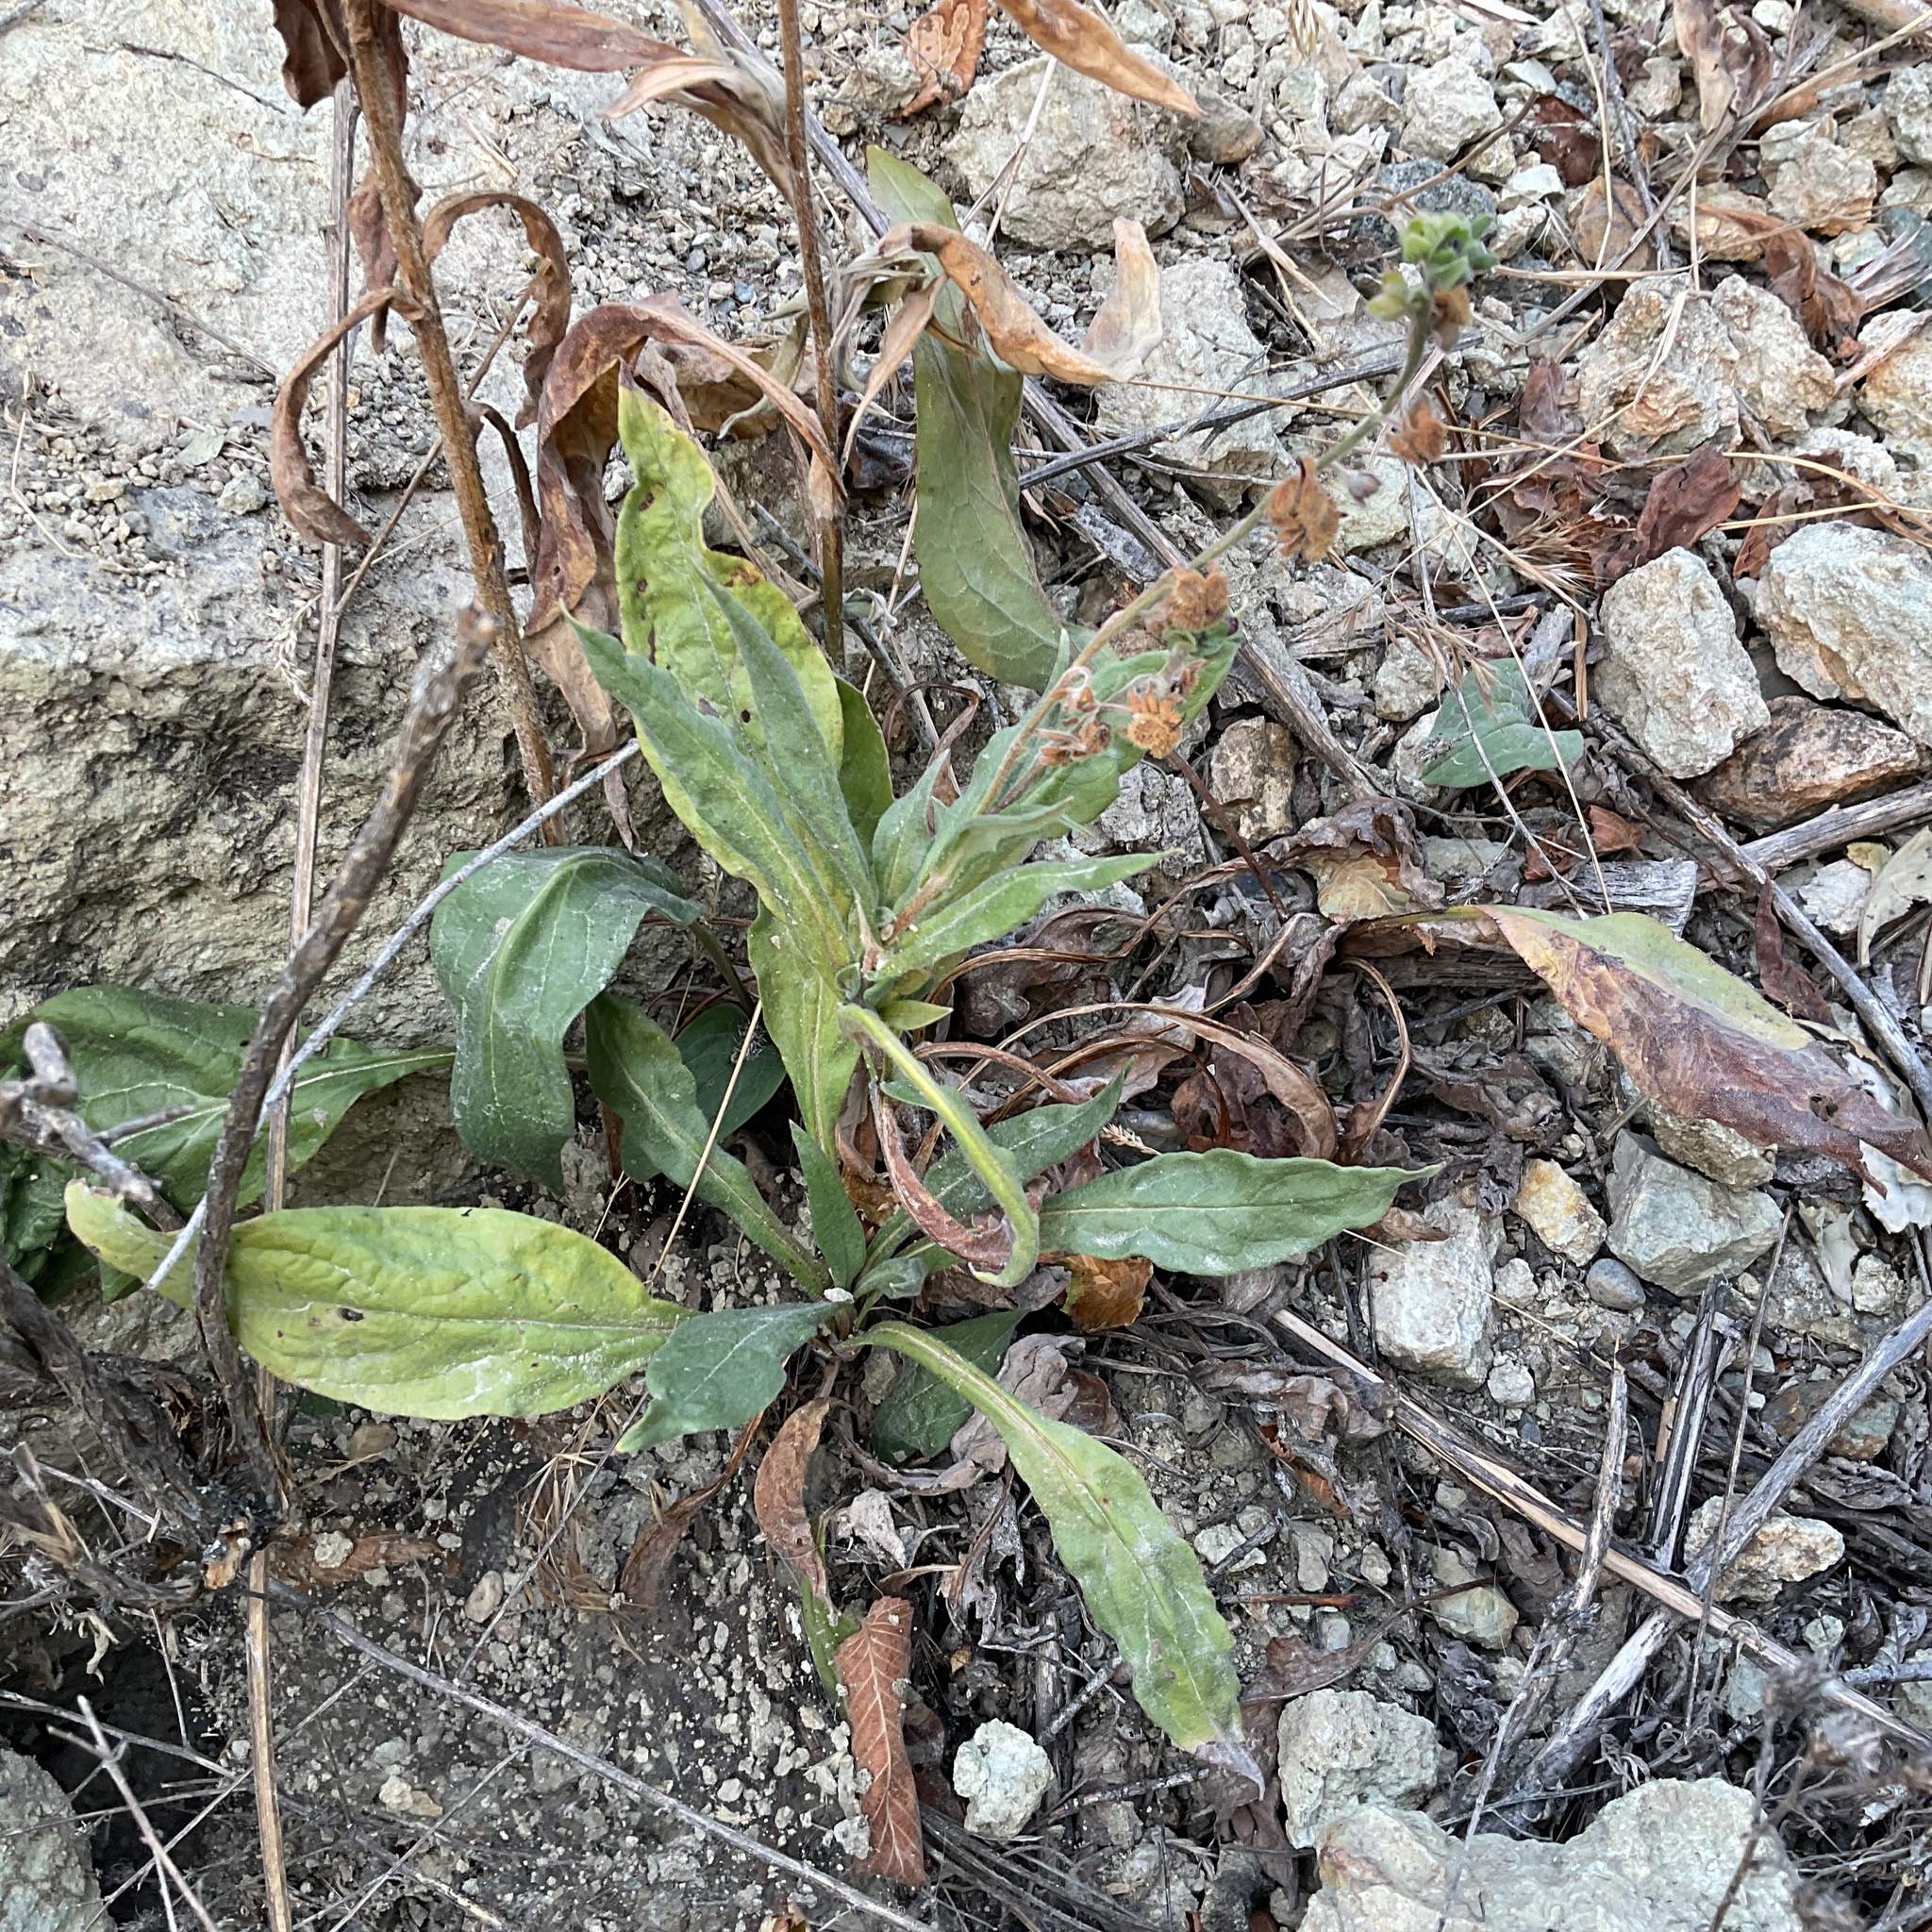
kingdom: Plantae
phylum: Tracheophyta
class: Magnoliopsida
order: Boraginales
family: Boraginaceae
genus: Cynoglossum
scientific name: Cynoglossum officinale
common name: Hound's-tongue
